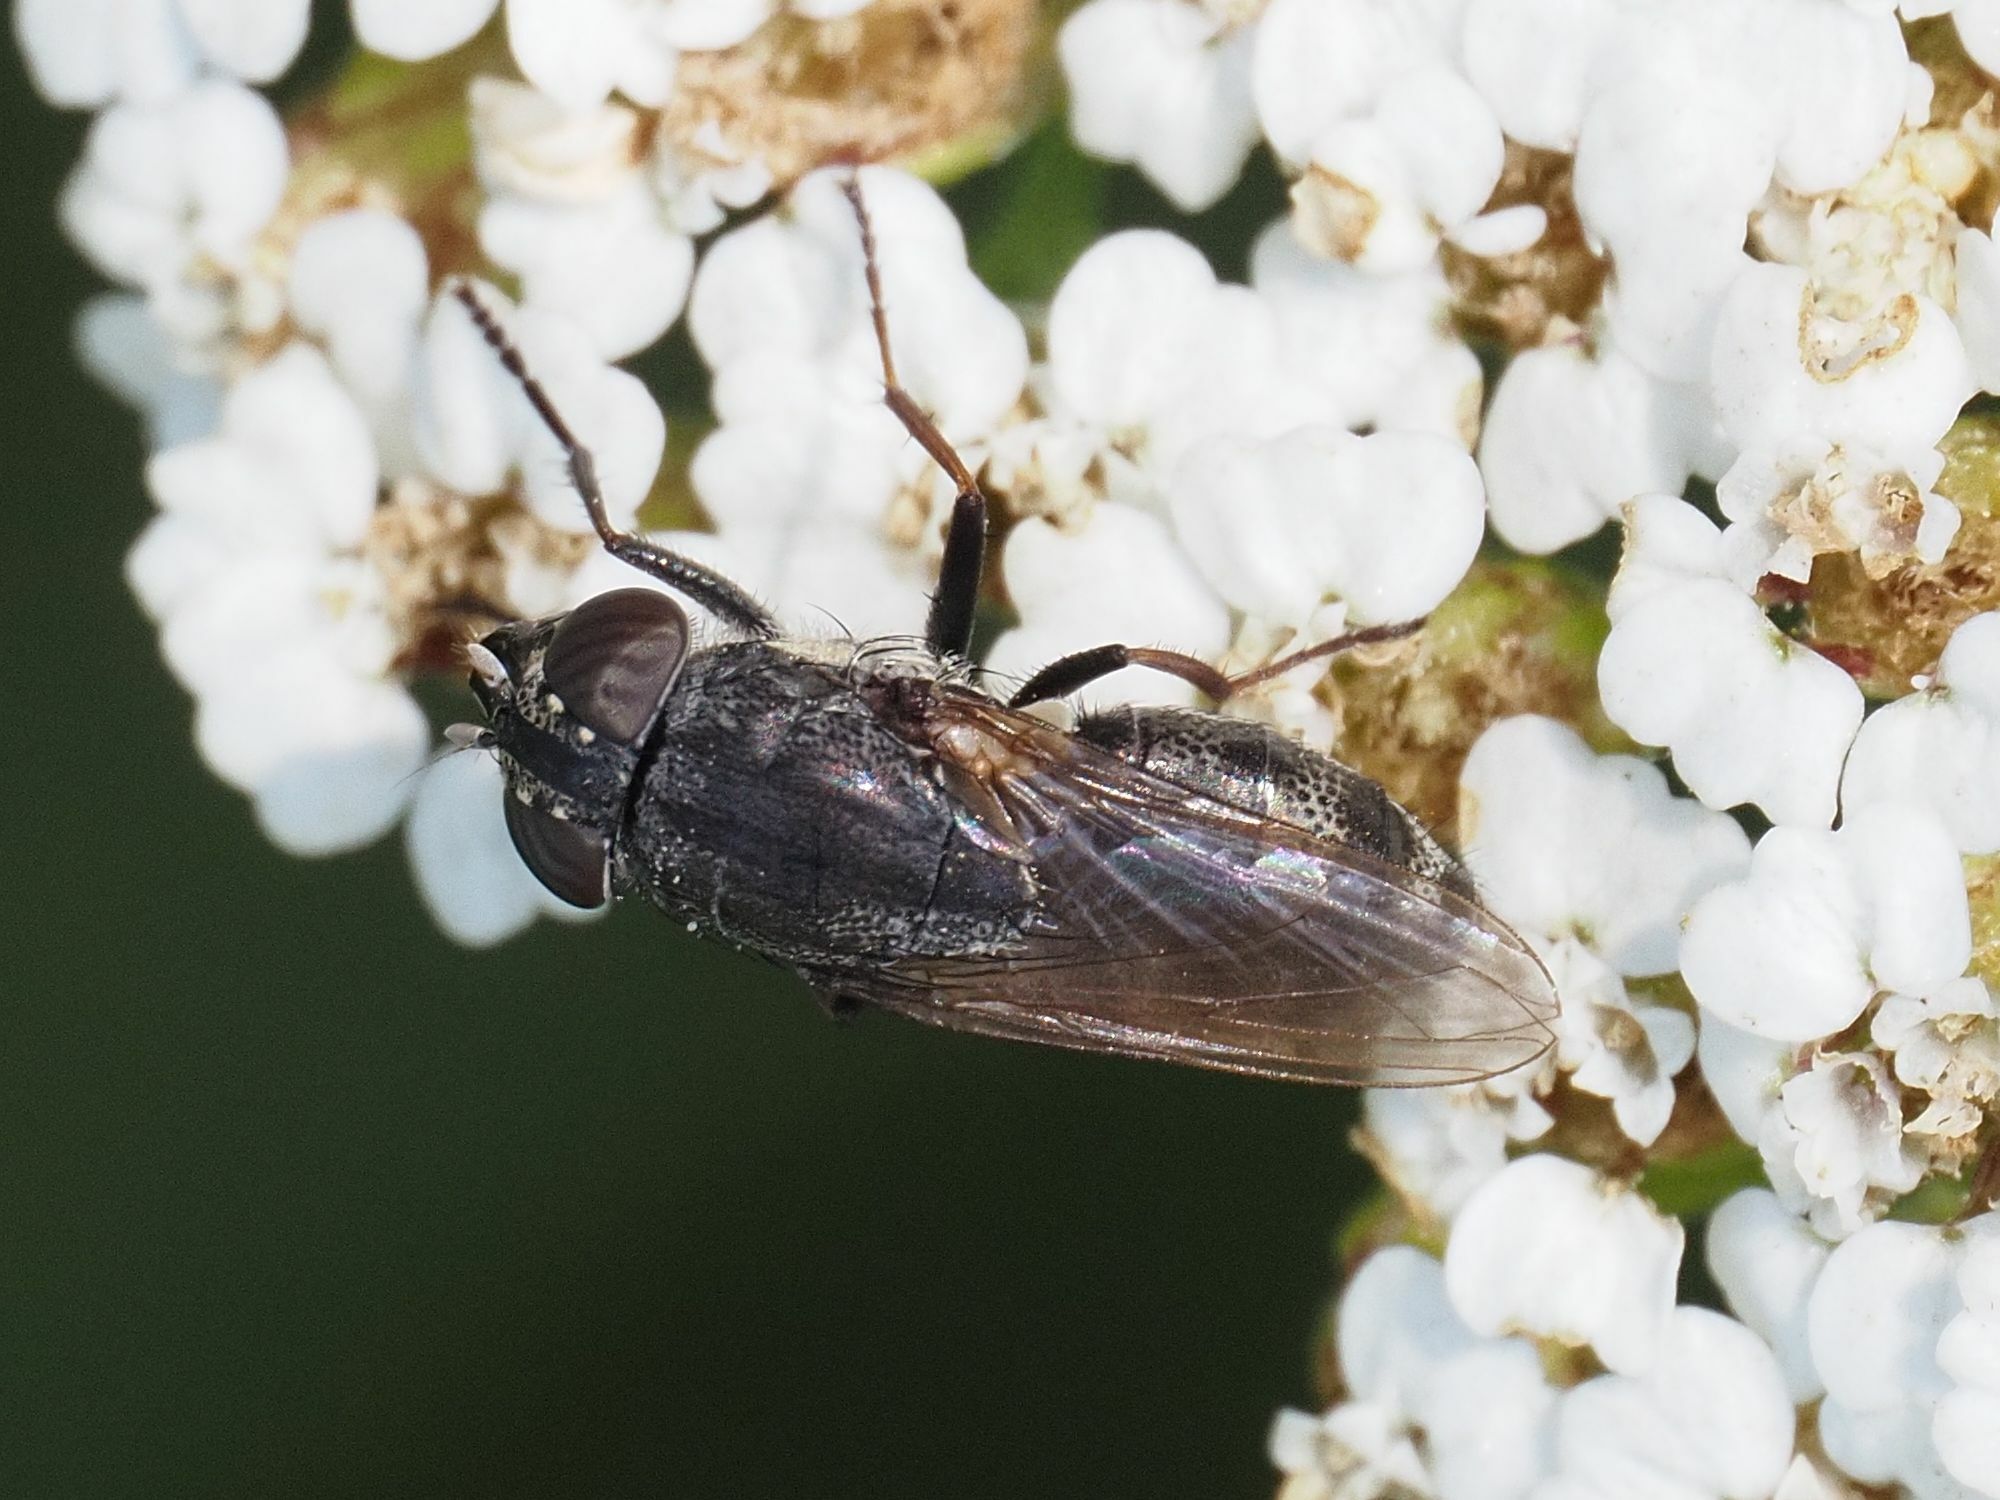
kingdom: Animalia
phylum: Arthropoda
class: Insecta
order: Diptera
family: Calliphoridae
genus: Stomorhina
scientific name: Stomorhina lunata
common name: Locust blowfly
